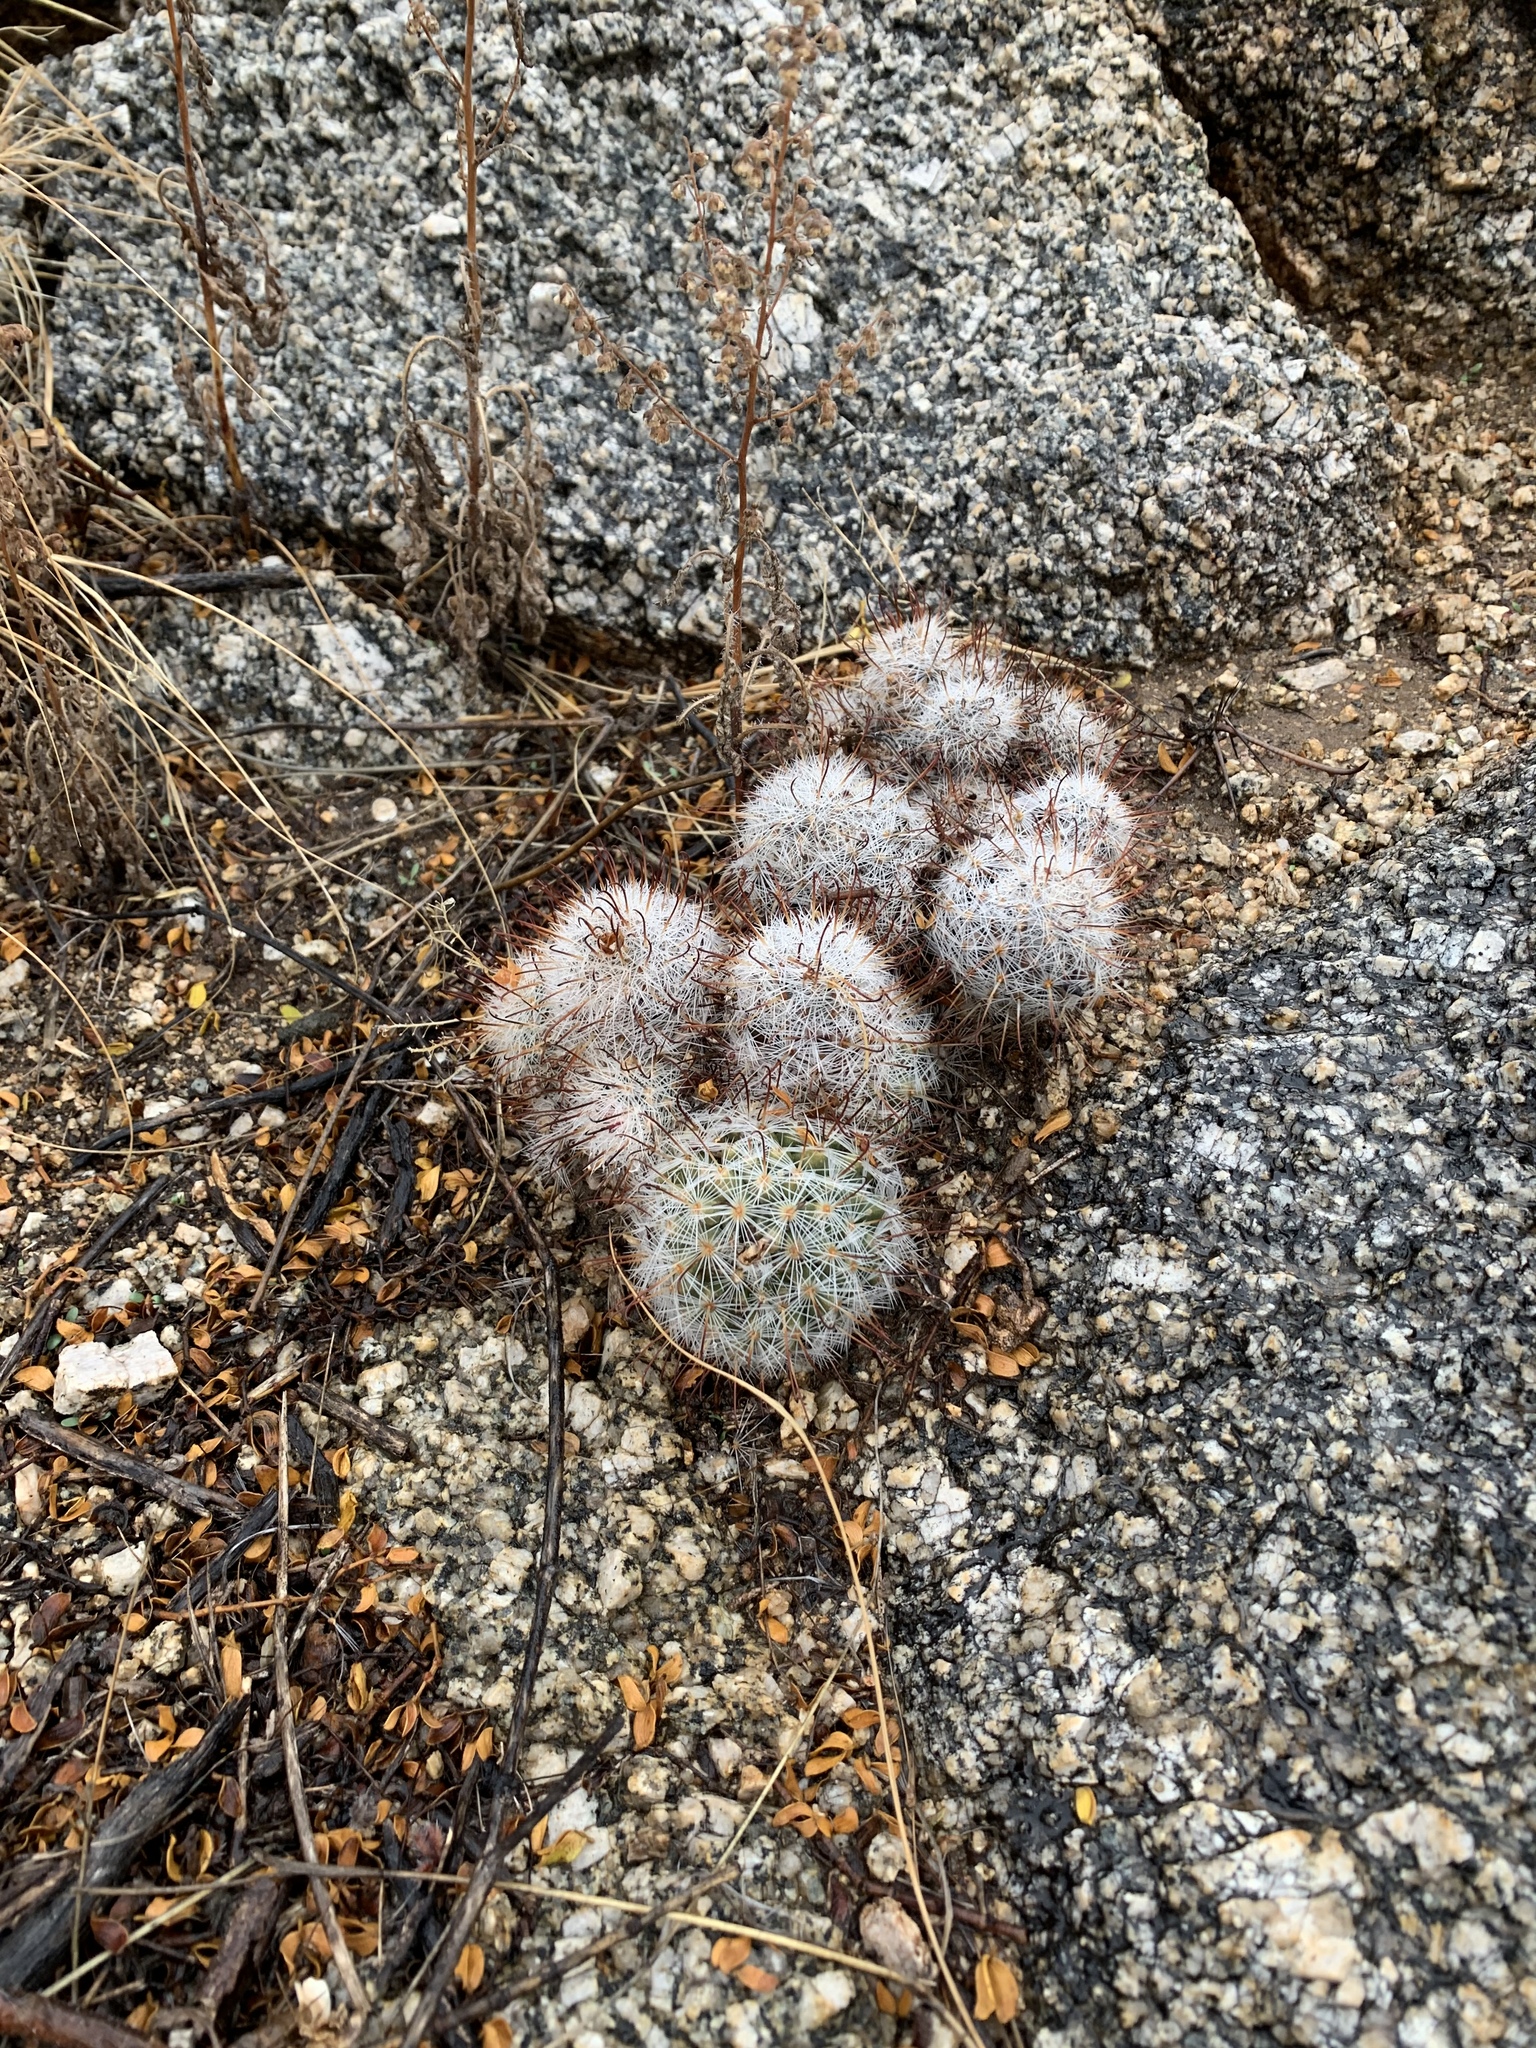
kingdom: Plantae
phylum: Tracheophyta
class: Magnoliopsida
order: Caryophyllales
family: Cactaceae
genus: Cochemiea
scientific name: Cochemiea grahamii
